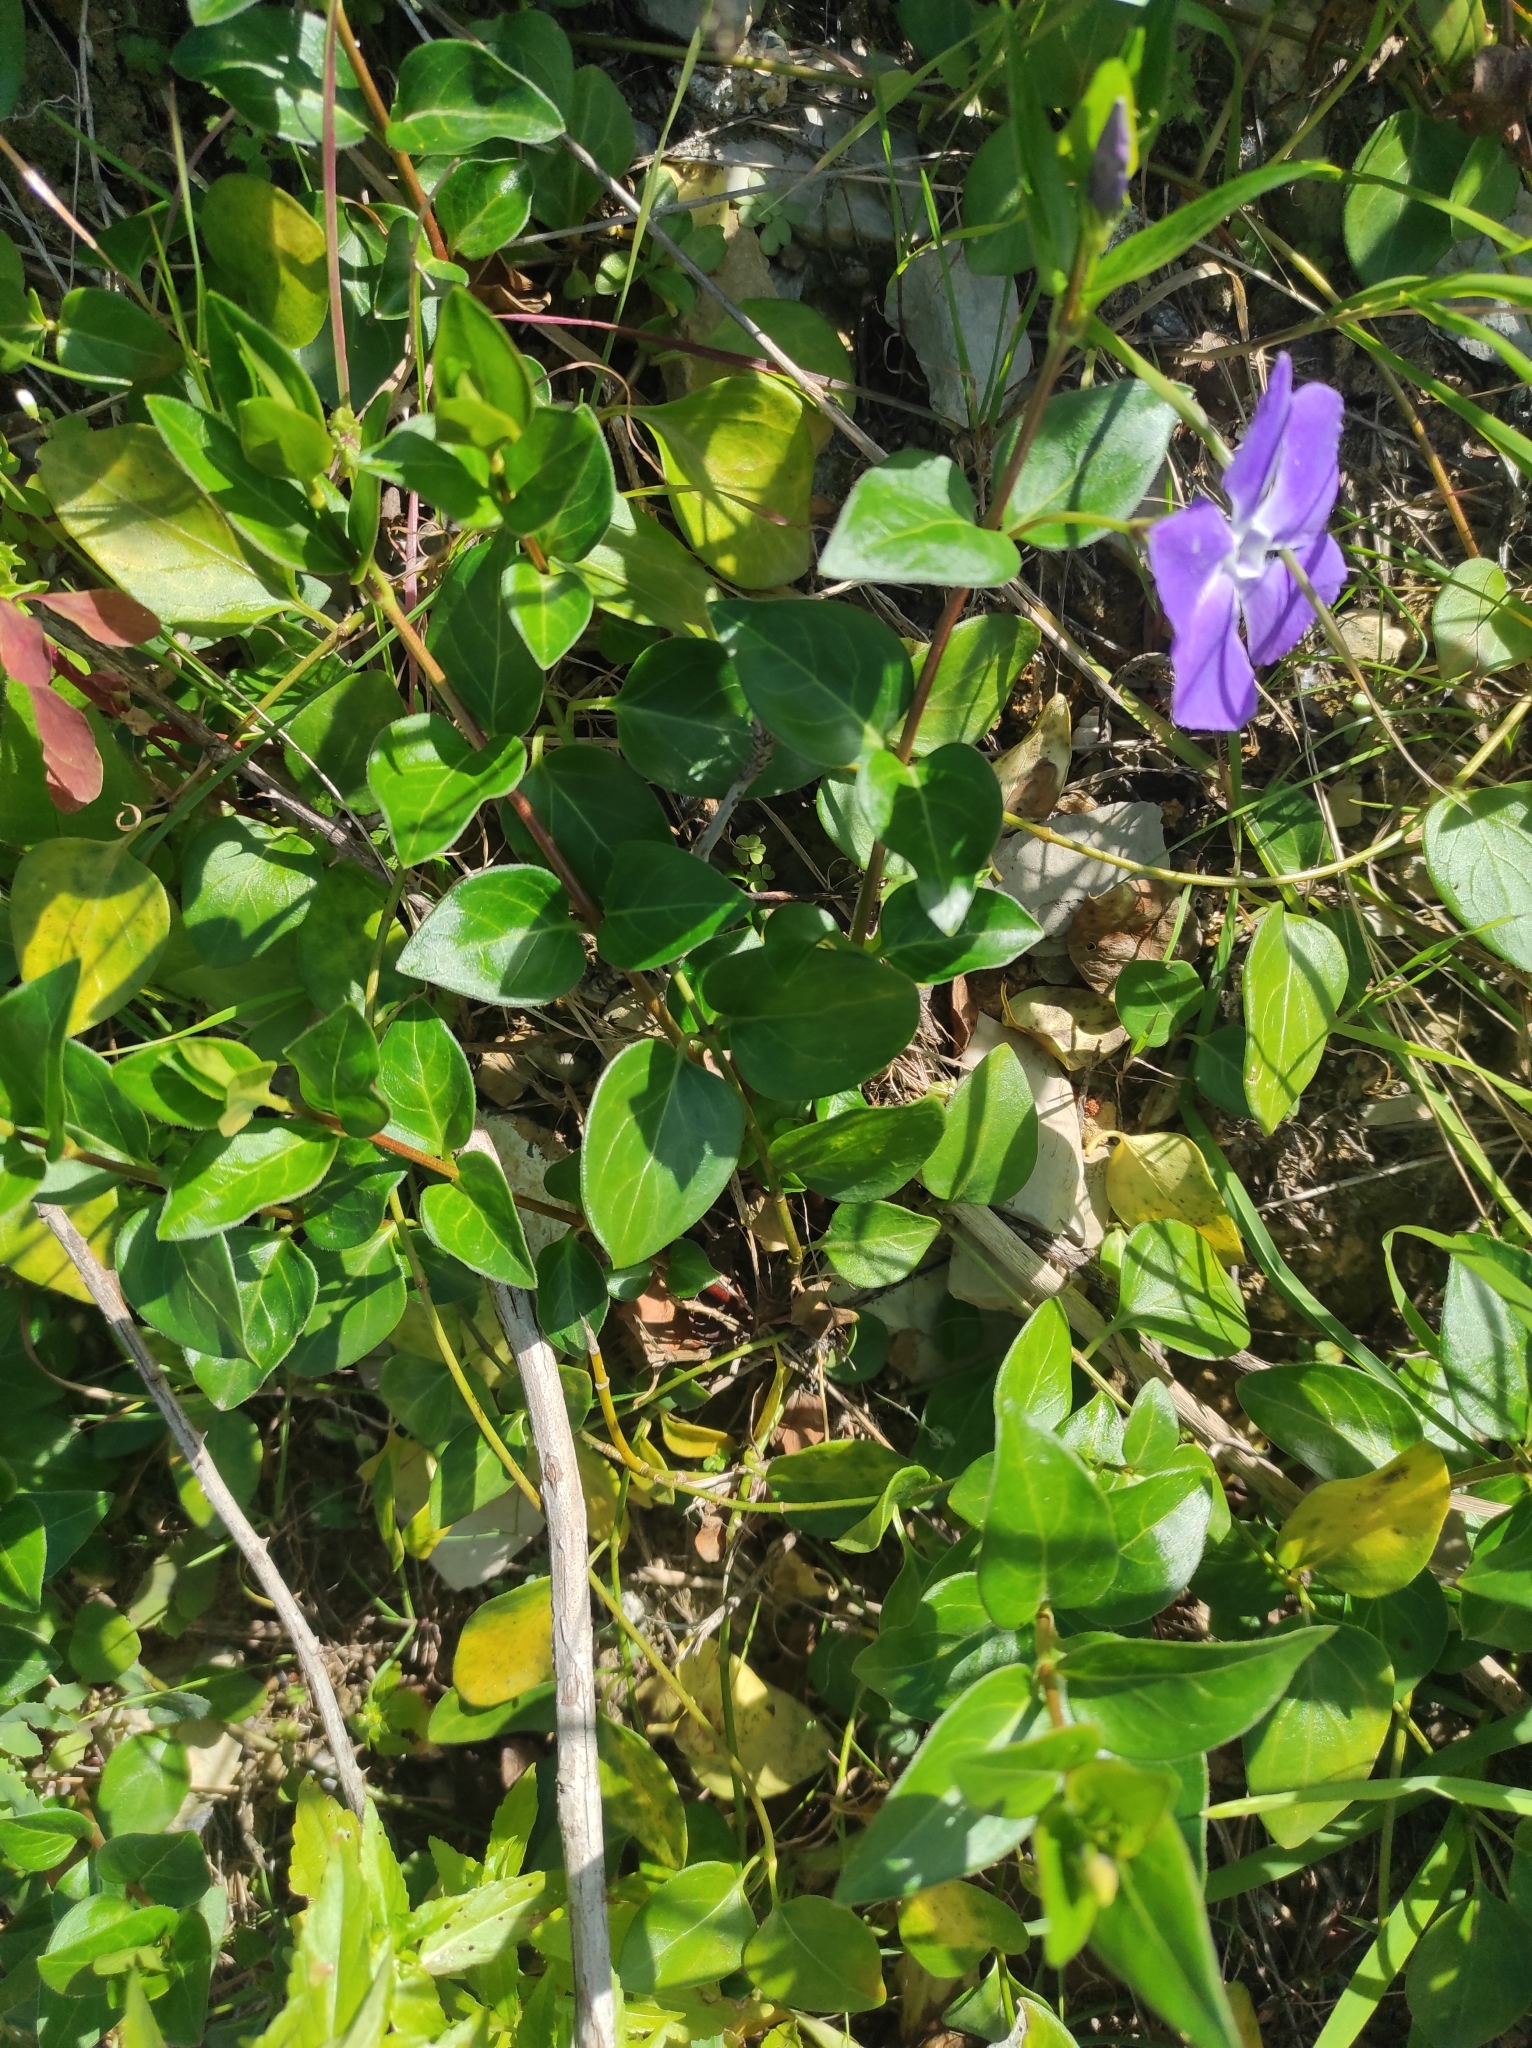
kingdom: Plantae
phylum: Tracheophyta
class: Magnoliopsida
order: Gentianales
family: Apocynaceae
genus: Vinca
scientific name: Vinca major
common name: Greater periwinkle
